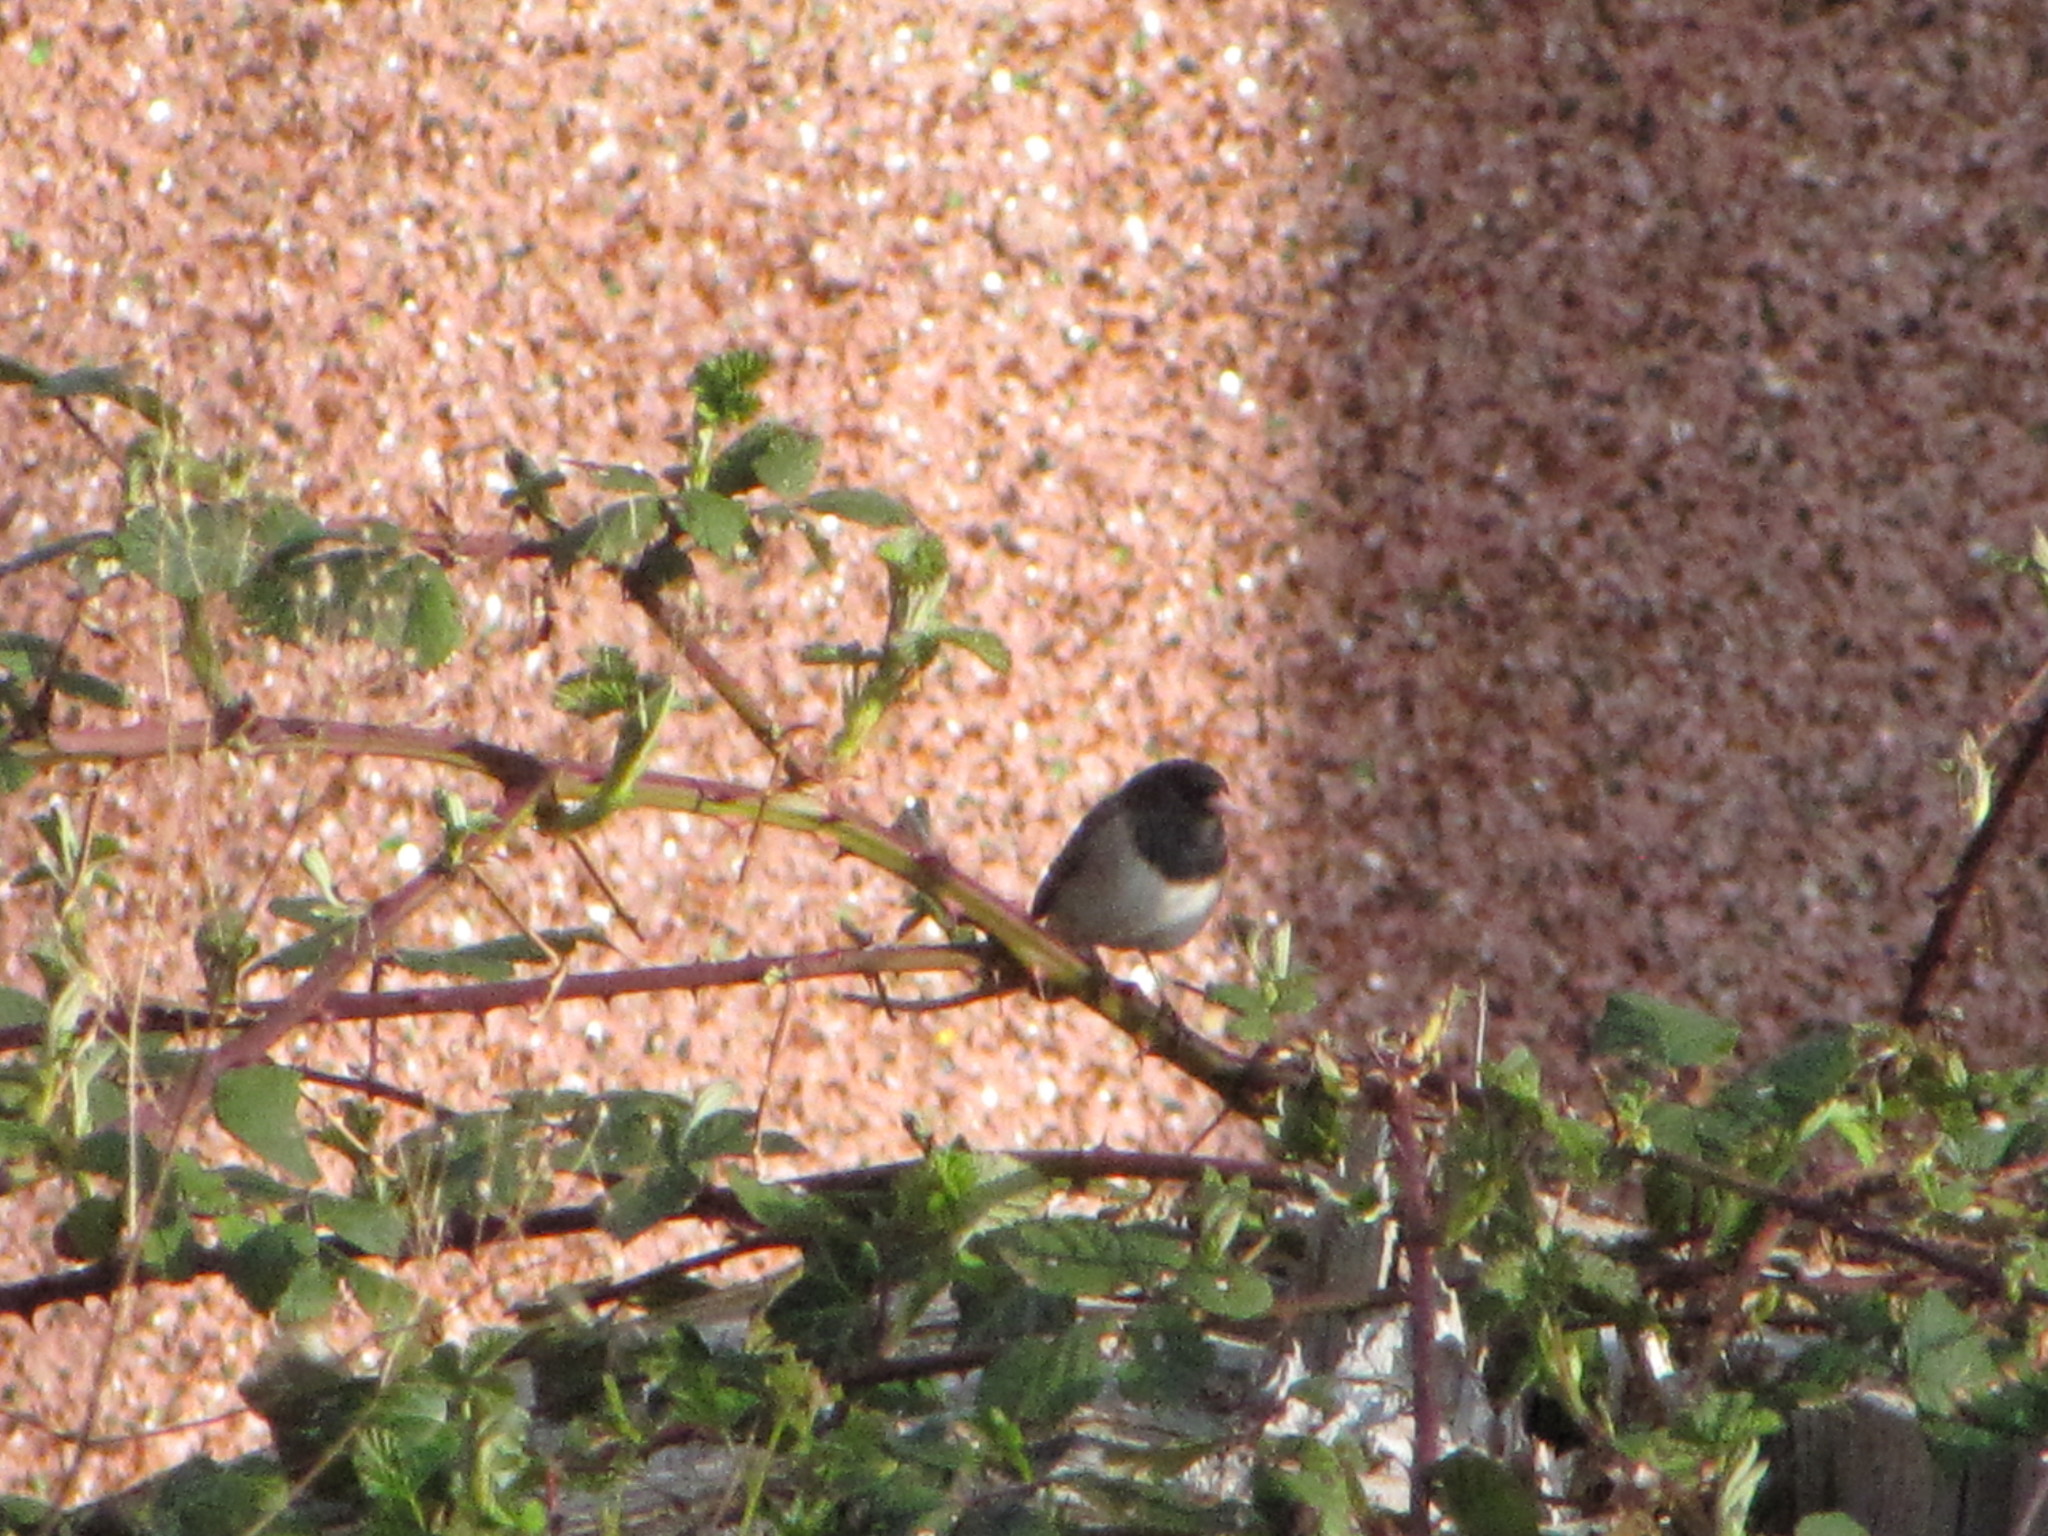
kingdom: Animalia
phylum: Chordata
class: Aves
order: Passeriformes
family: Passerellidae
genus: Junco
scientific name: Junco hyemalis
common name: Dark-eyed junco
